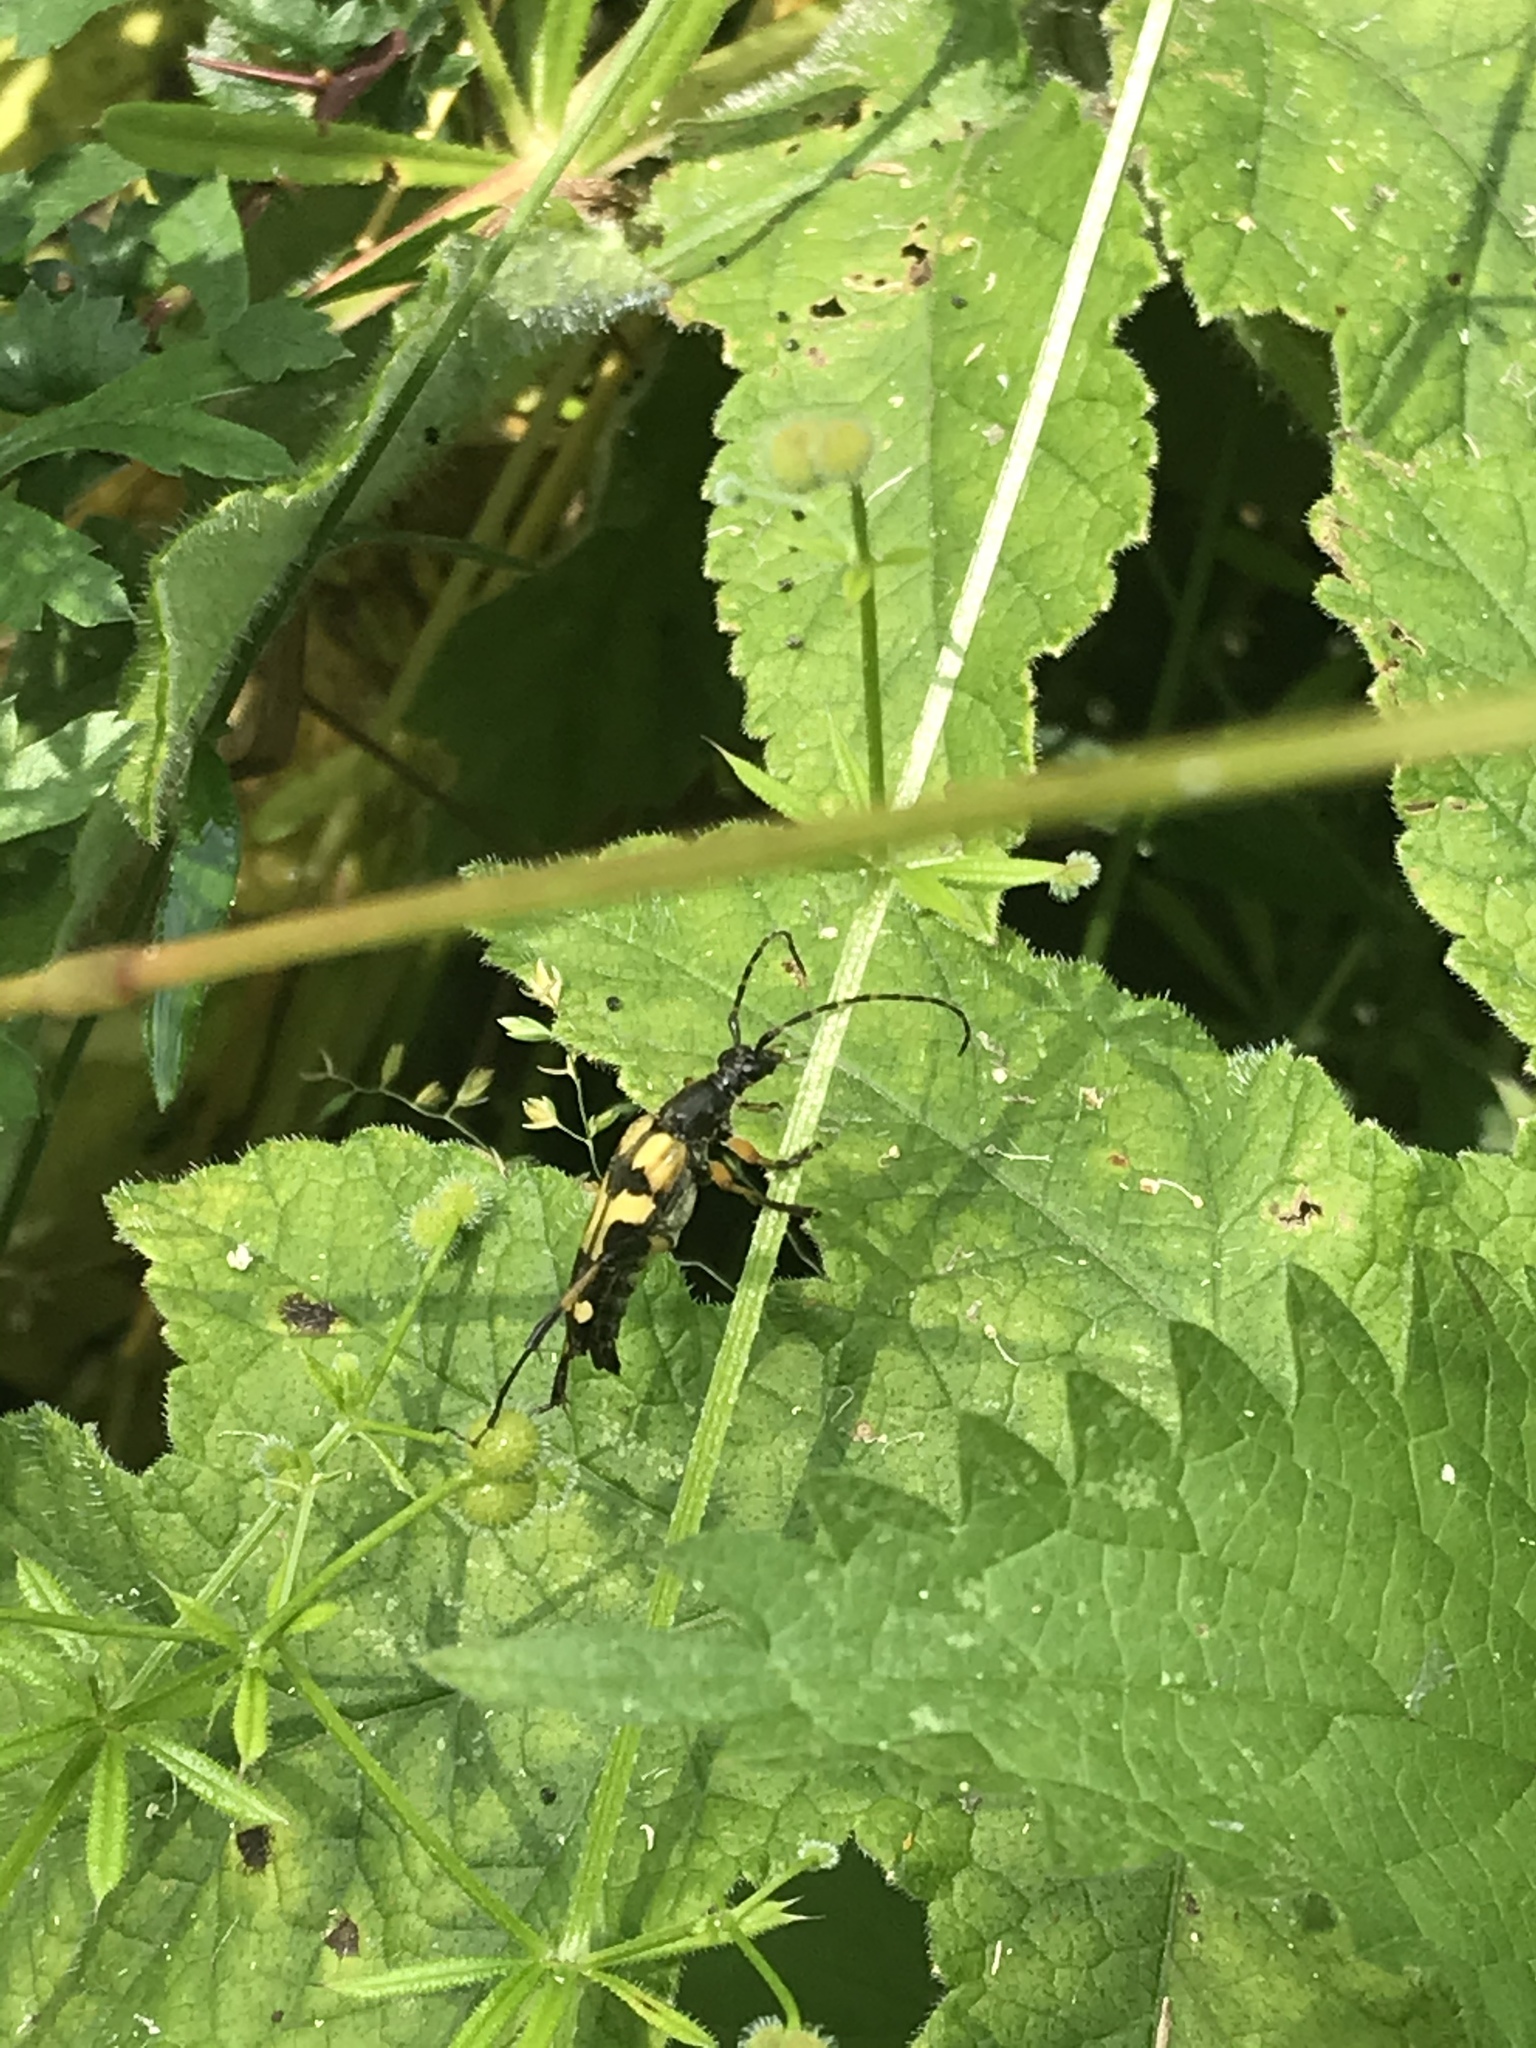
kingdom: Animalia
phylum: Arthropoda
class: Insecta
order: Coleoptera
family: Cerambycidae
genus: Rutpela
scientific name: Rutpela maculata
